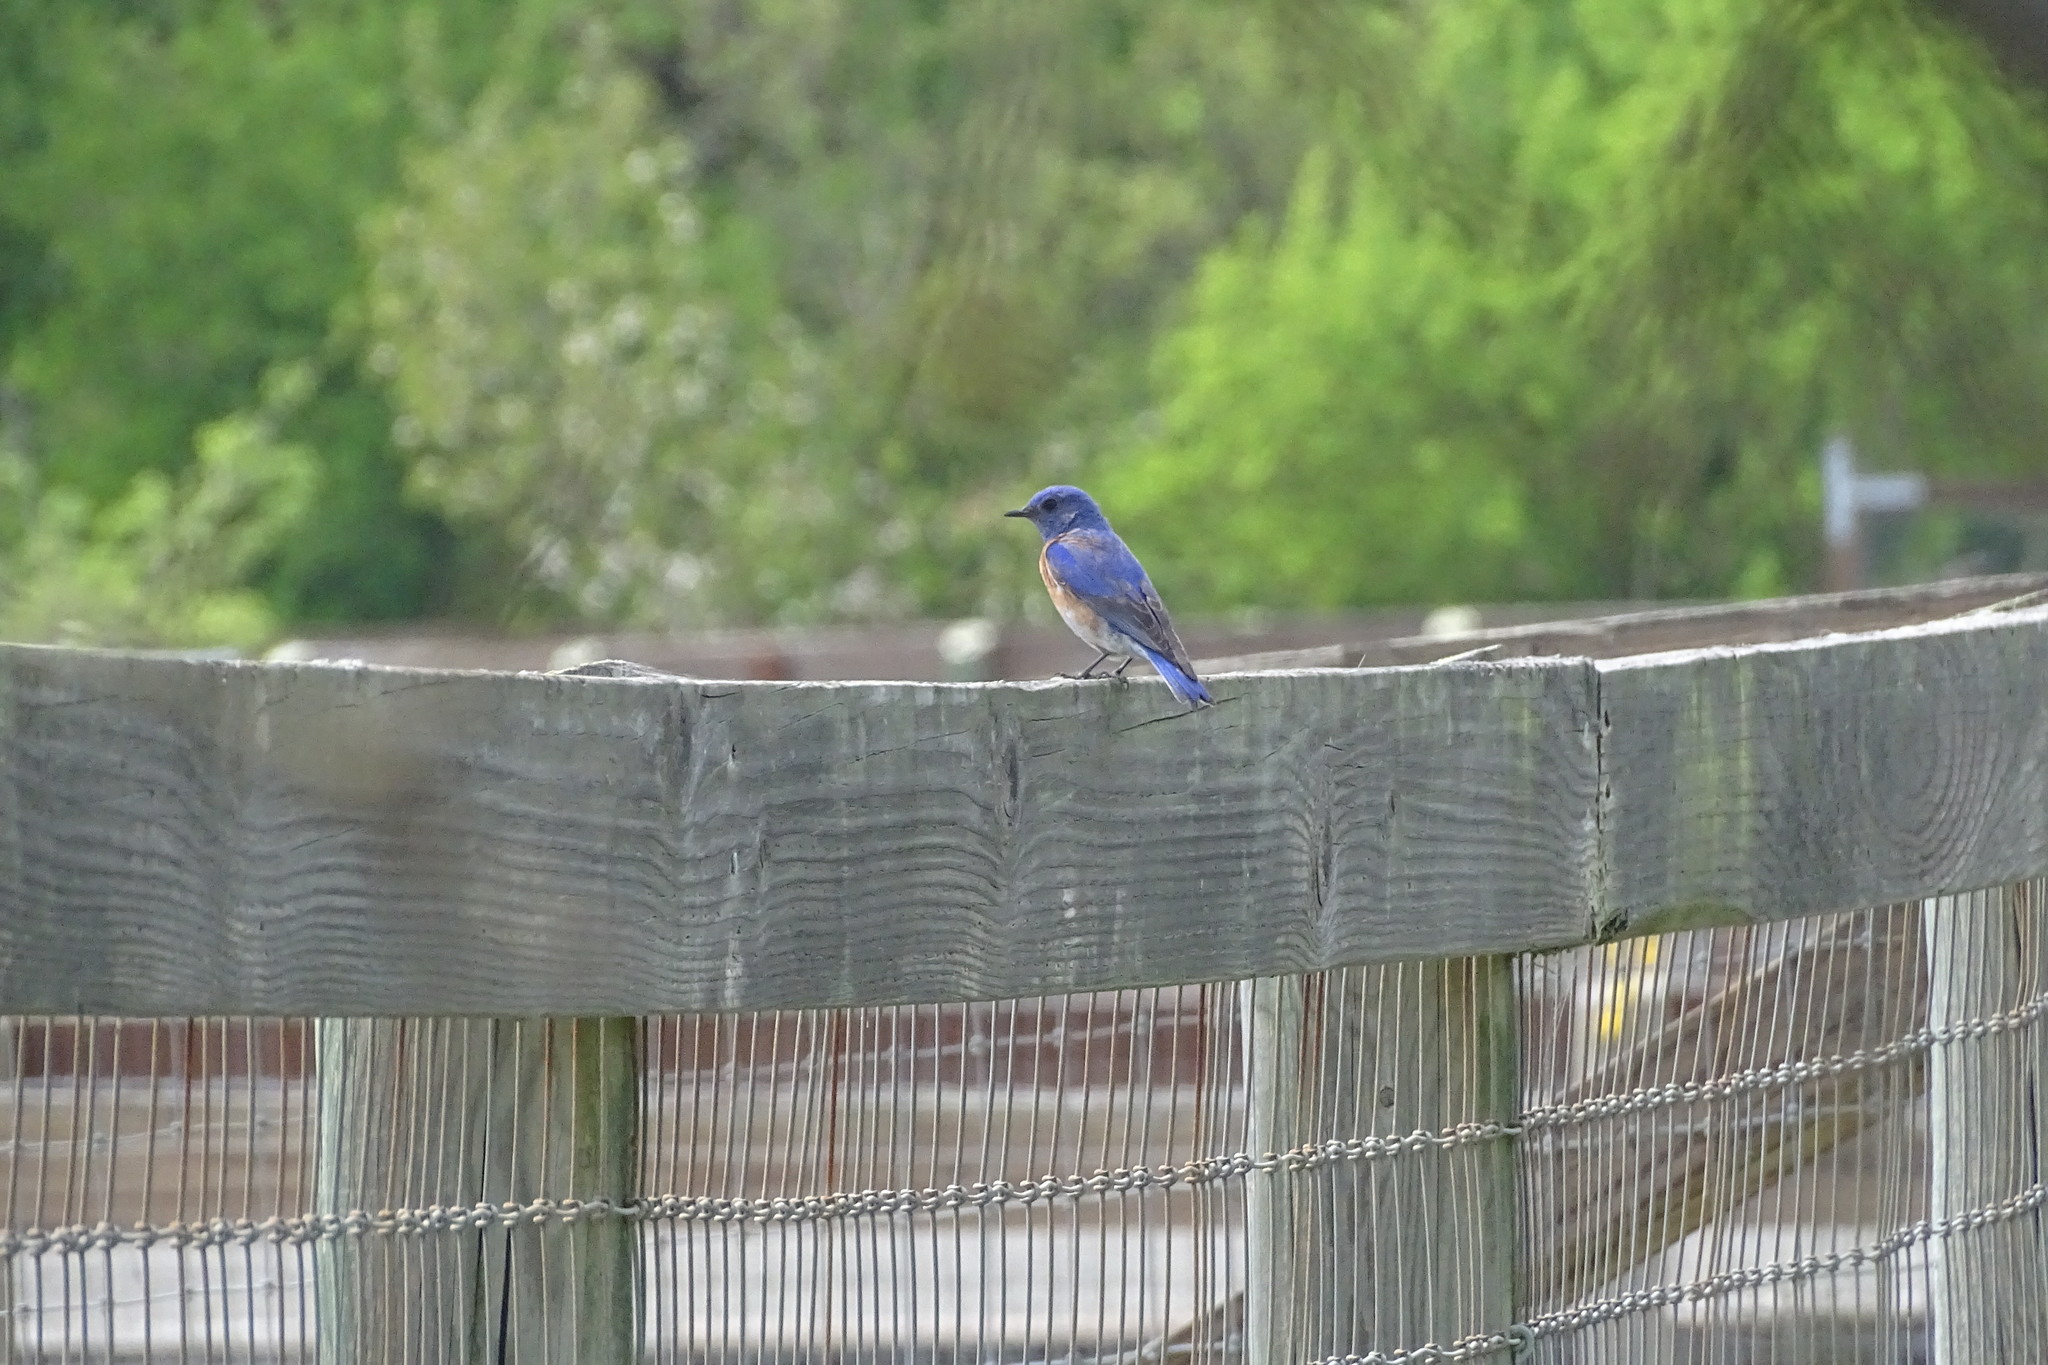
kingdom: Animalia
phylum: Chordata
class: Aves
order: Passeriformes
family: Turdidae
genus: Sialia
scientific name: Sialia mexicana
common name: Western bluebird
